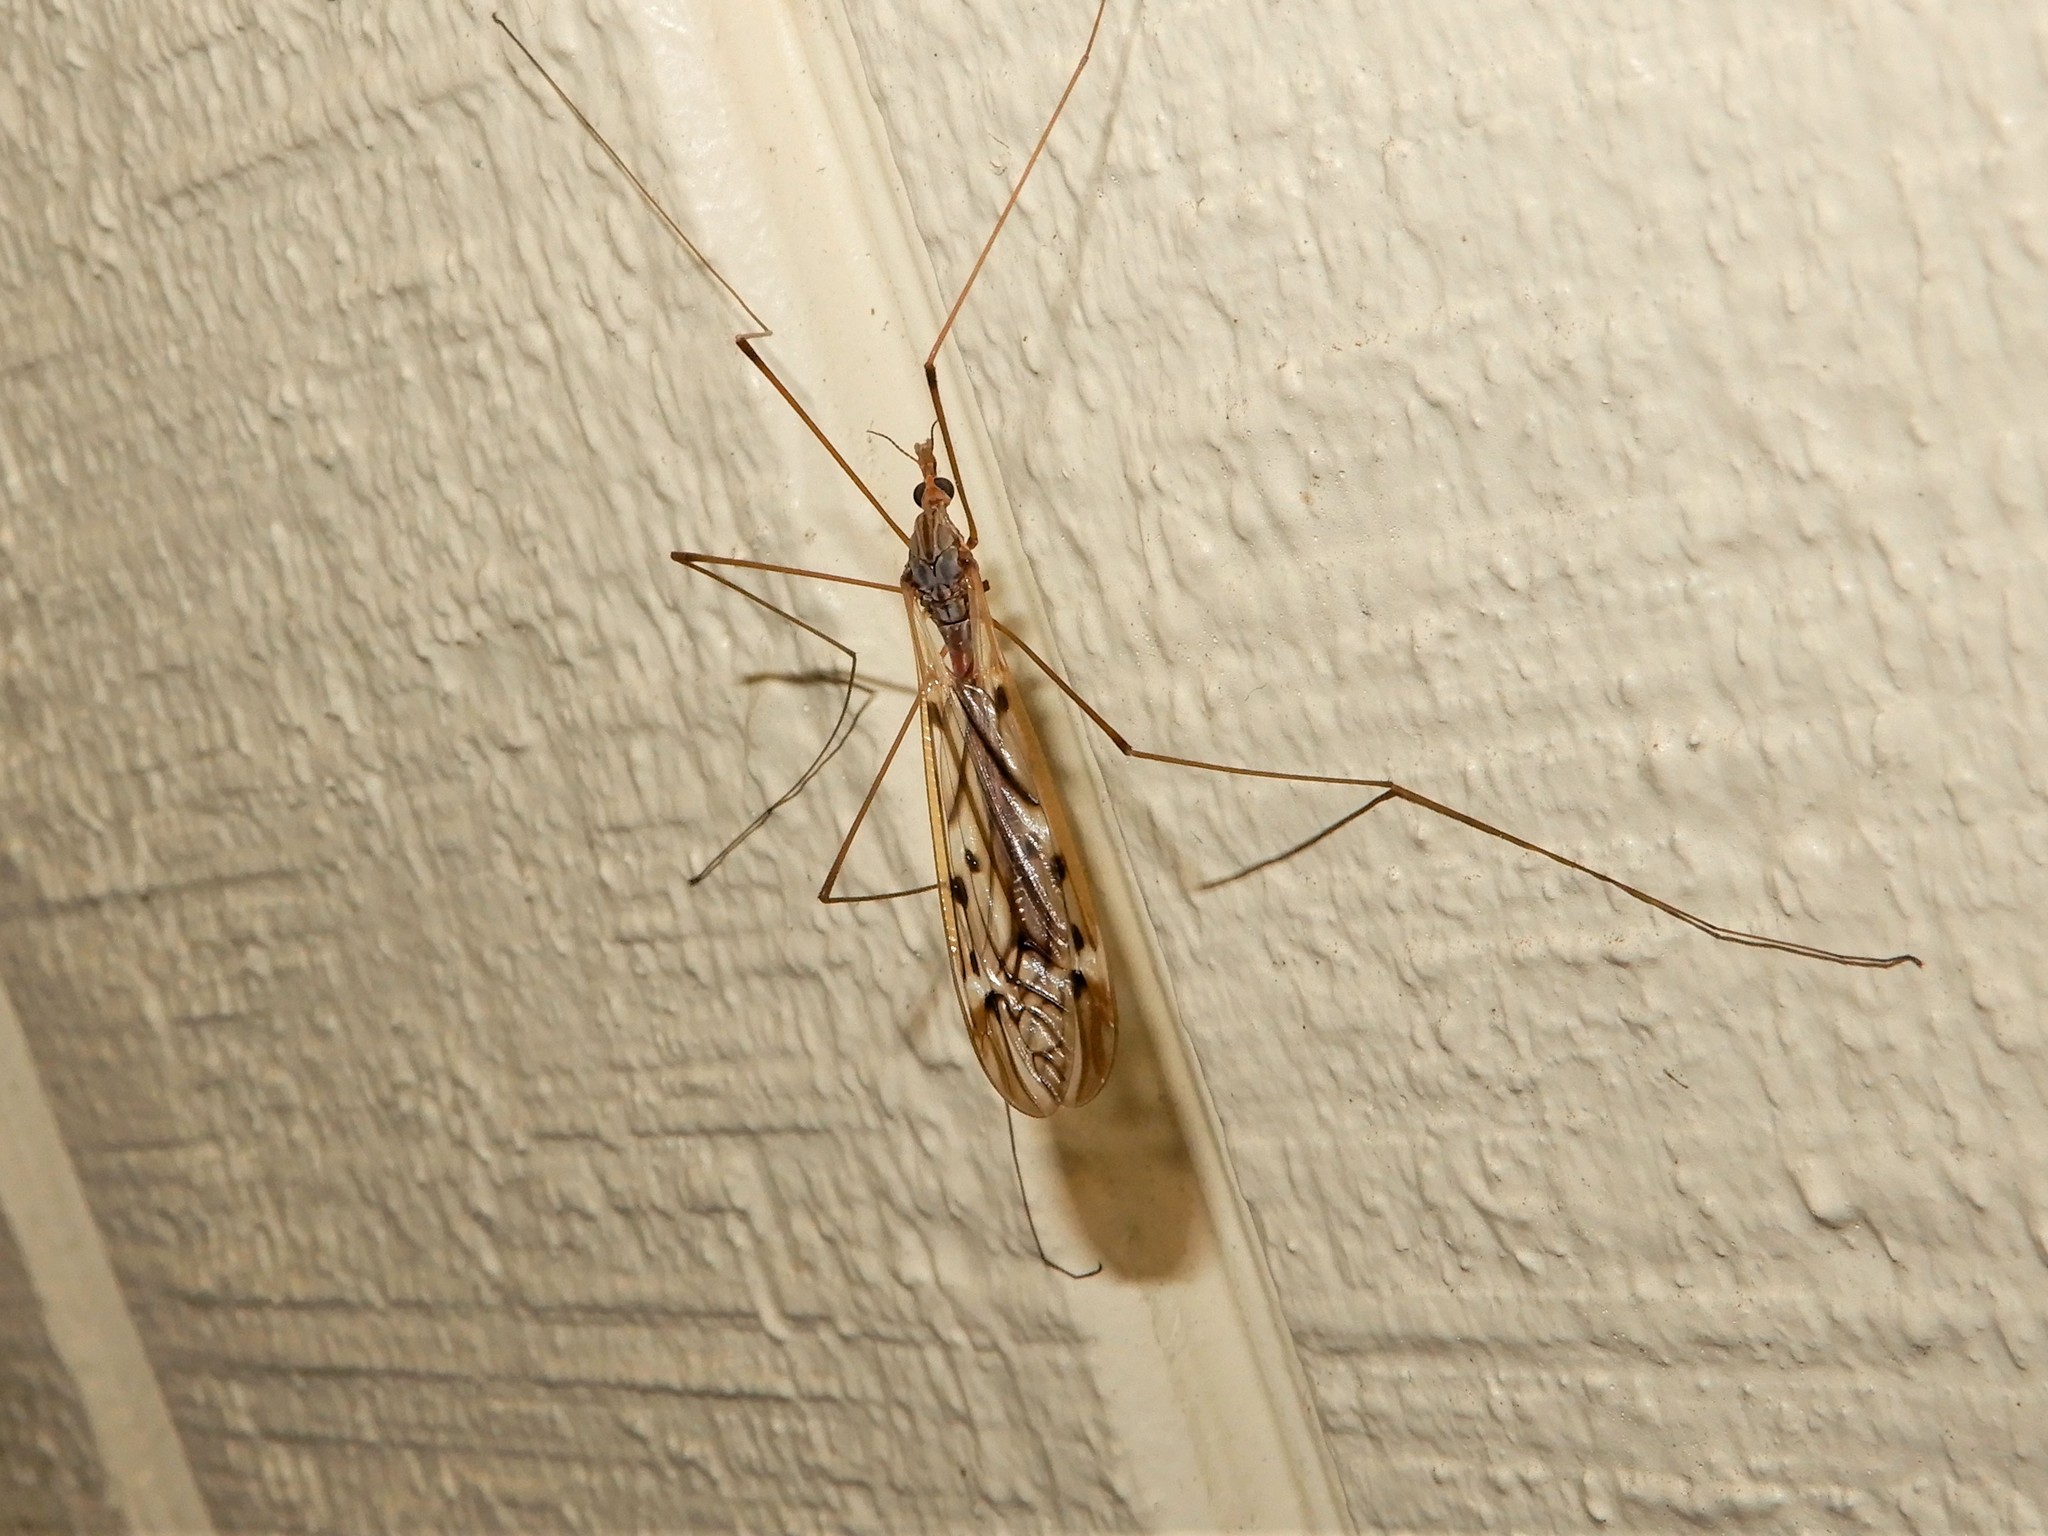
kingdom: Animalia
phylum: Arthropoda
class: Insecta
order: Diptera
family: Tipulidae
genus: Zelandotipula
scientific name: Zelandotipula novarae
